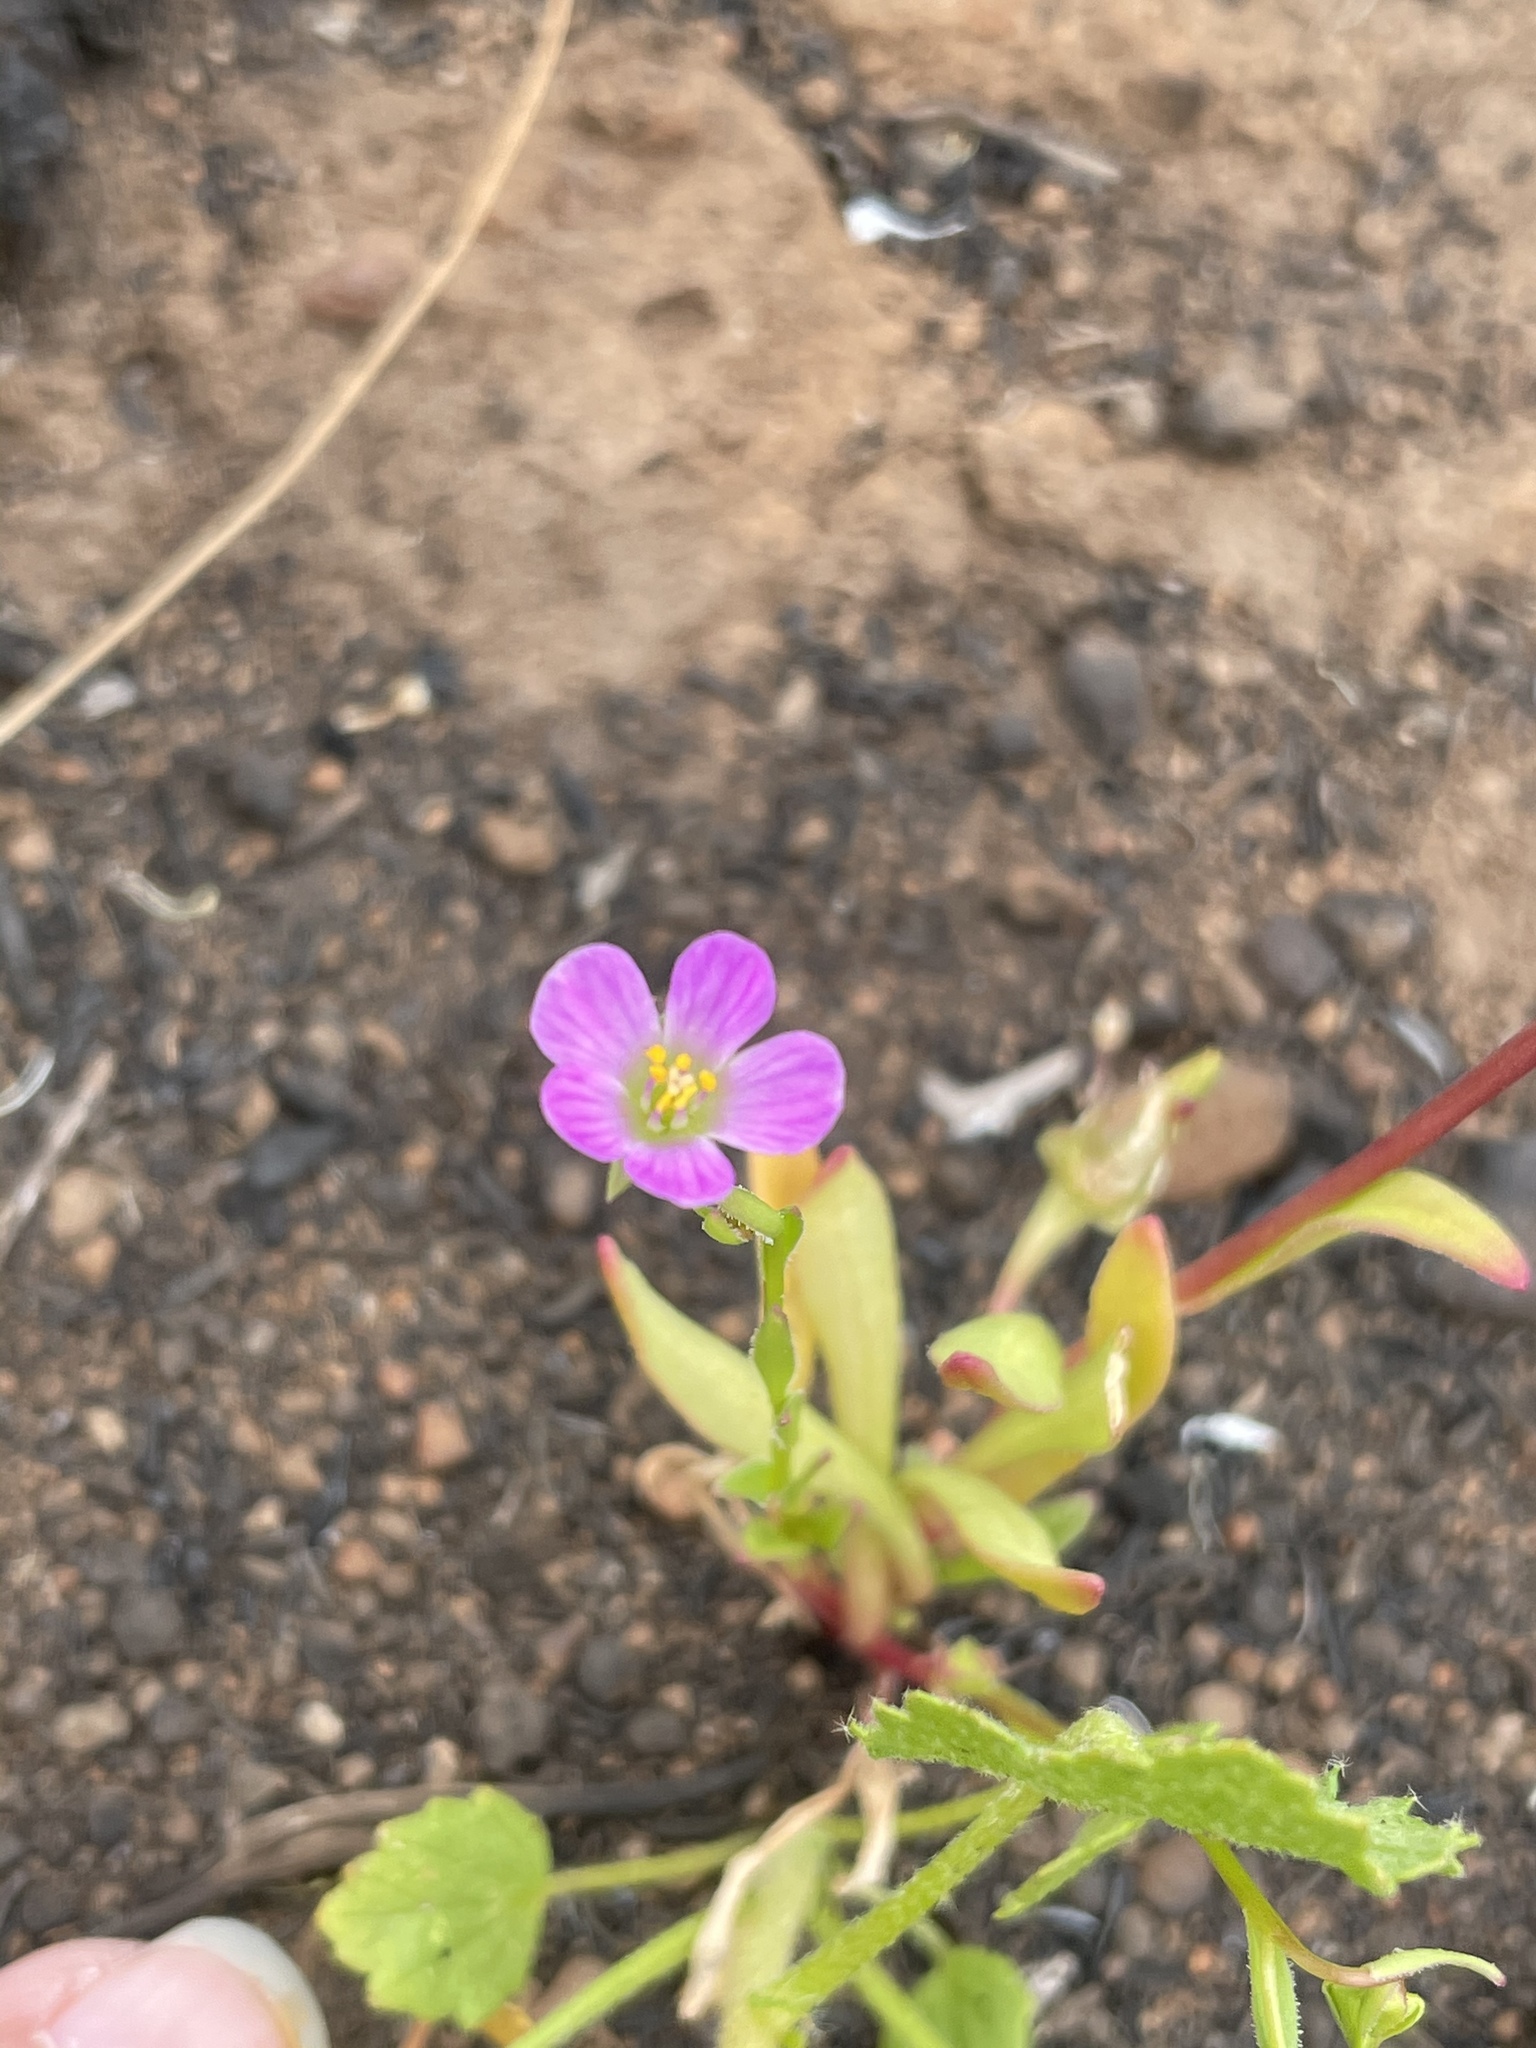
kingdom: Plantae
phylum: Tracheophyta
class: Magnoliopsida
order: Caryophyllales
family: Montiaceae
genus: Calandrinia
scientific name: Calandrinia breweri
